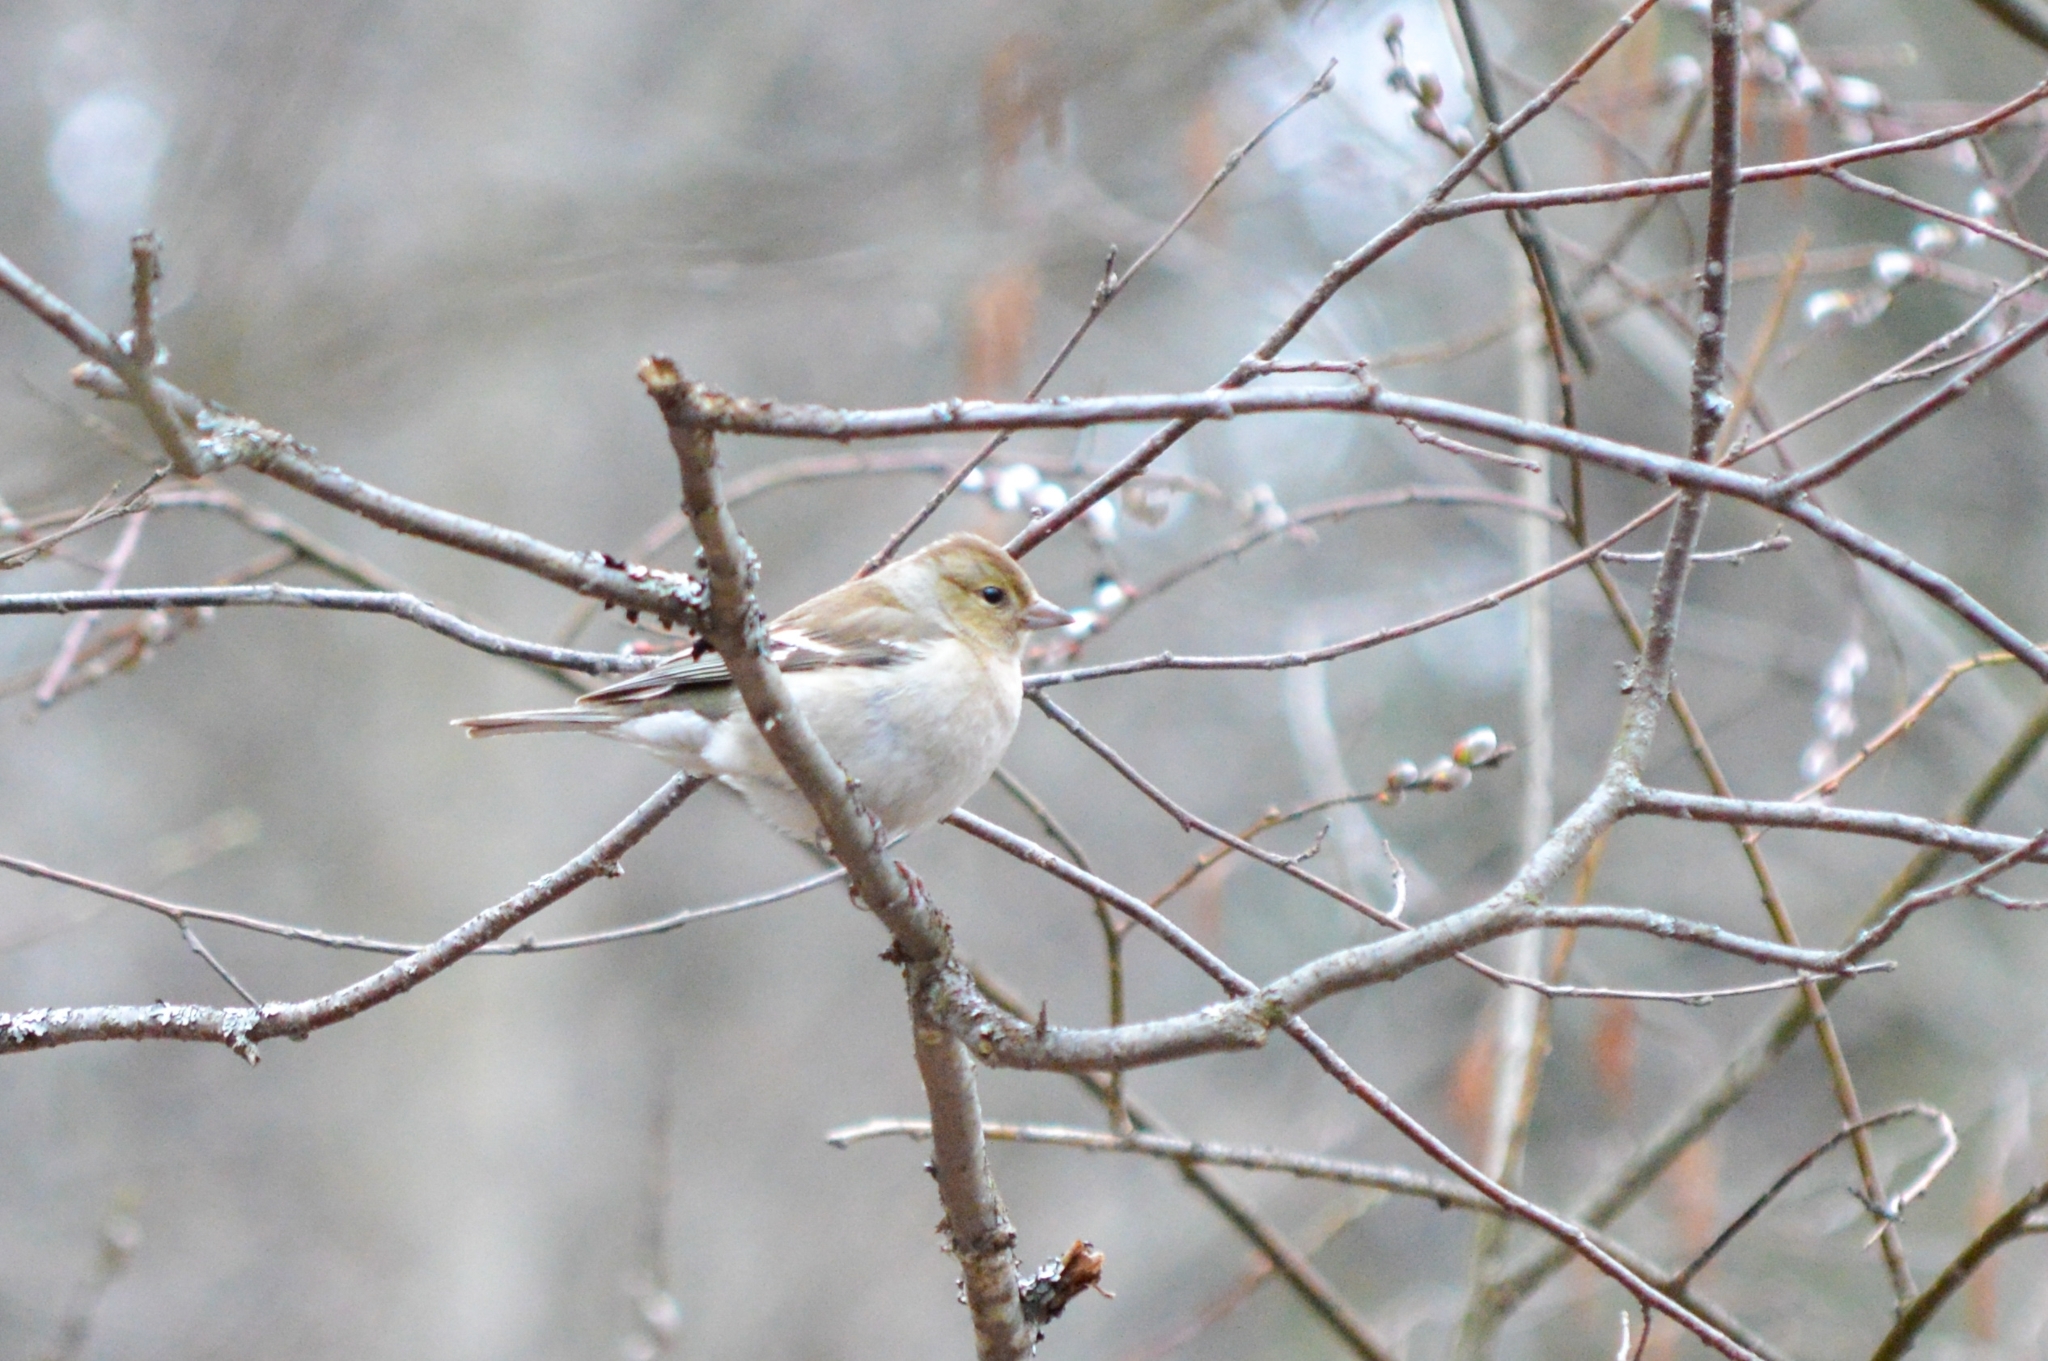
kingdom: Animalia
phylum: Chordata
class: Aves
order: Passeriformes
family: Fringillidae
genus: Fringilla
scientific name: Fringilla coelebs
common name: Common chaffinch
